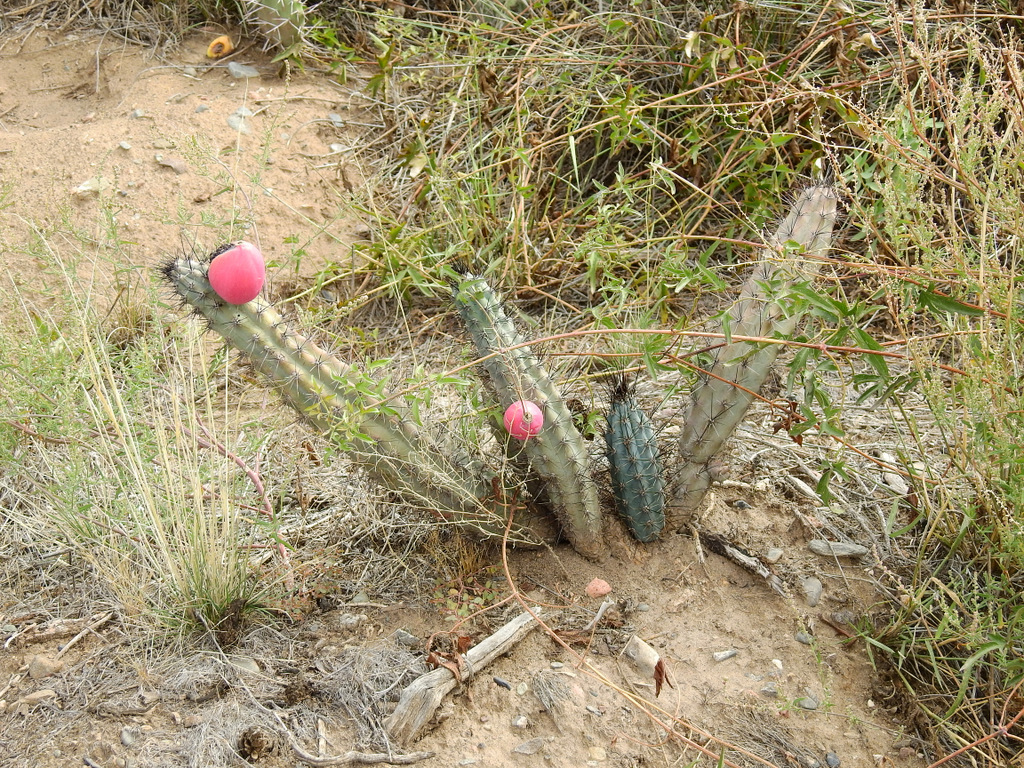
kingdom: Plantae
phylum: Tracheophyta
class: Magnoliopsida
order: Caryophyllales
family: Cactaceae
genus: Cereus
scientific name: Cereus aethiops
